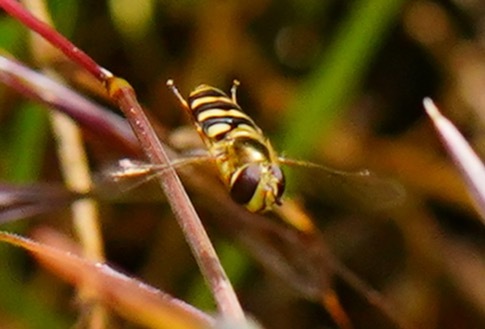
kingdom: Animalia
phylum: Arthropoda
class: Insecta
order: Diptera
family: Syrphidae
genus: Eupeodes
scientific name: Eupeodes fumipennis
